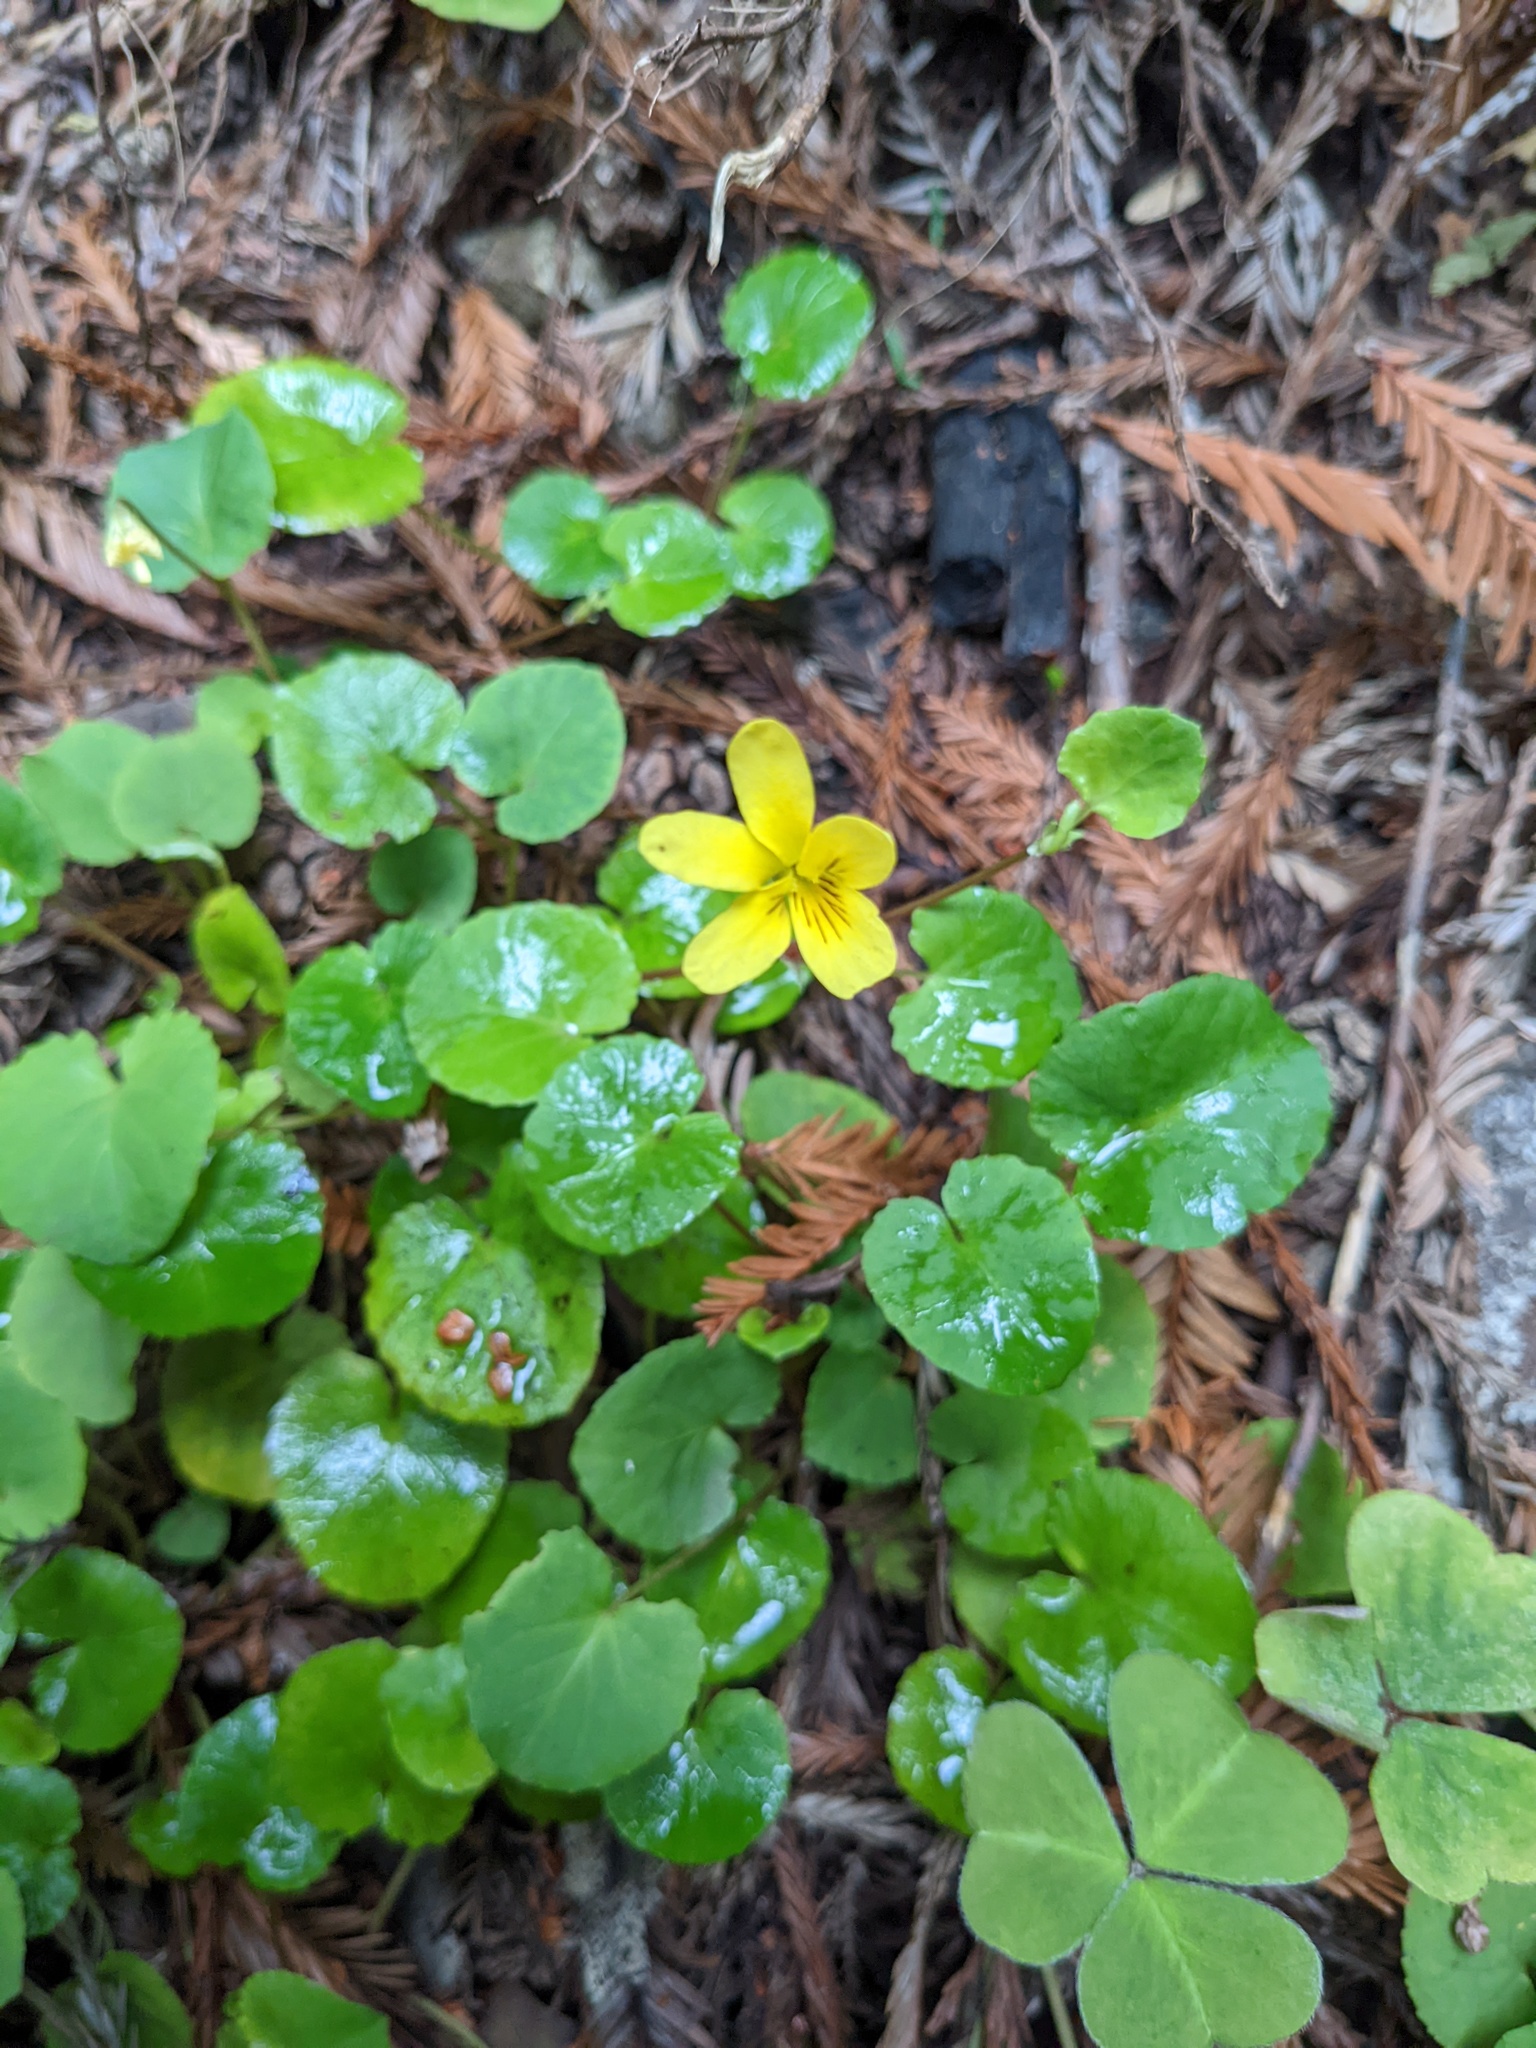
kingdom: Plantae
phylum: Tracheophyta
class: Magnoliopsida
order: Malpighiales
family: Violaceae
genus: Viola
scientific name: Viola sempervirens
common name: Evergreen violet
